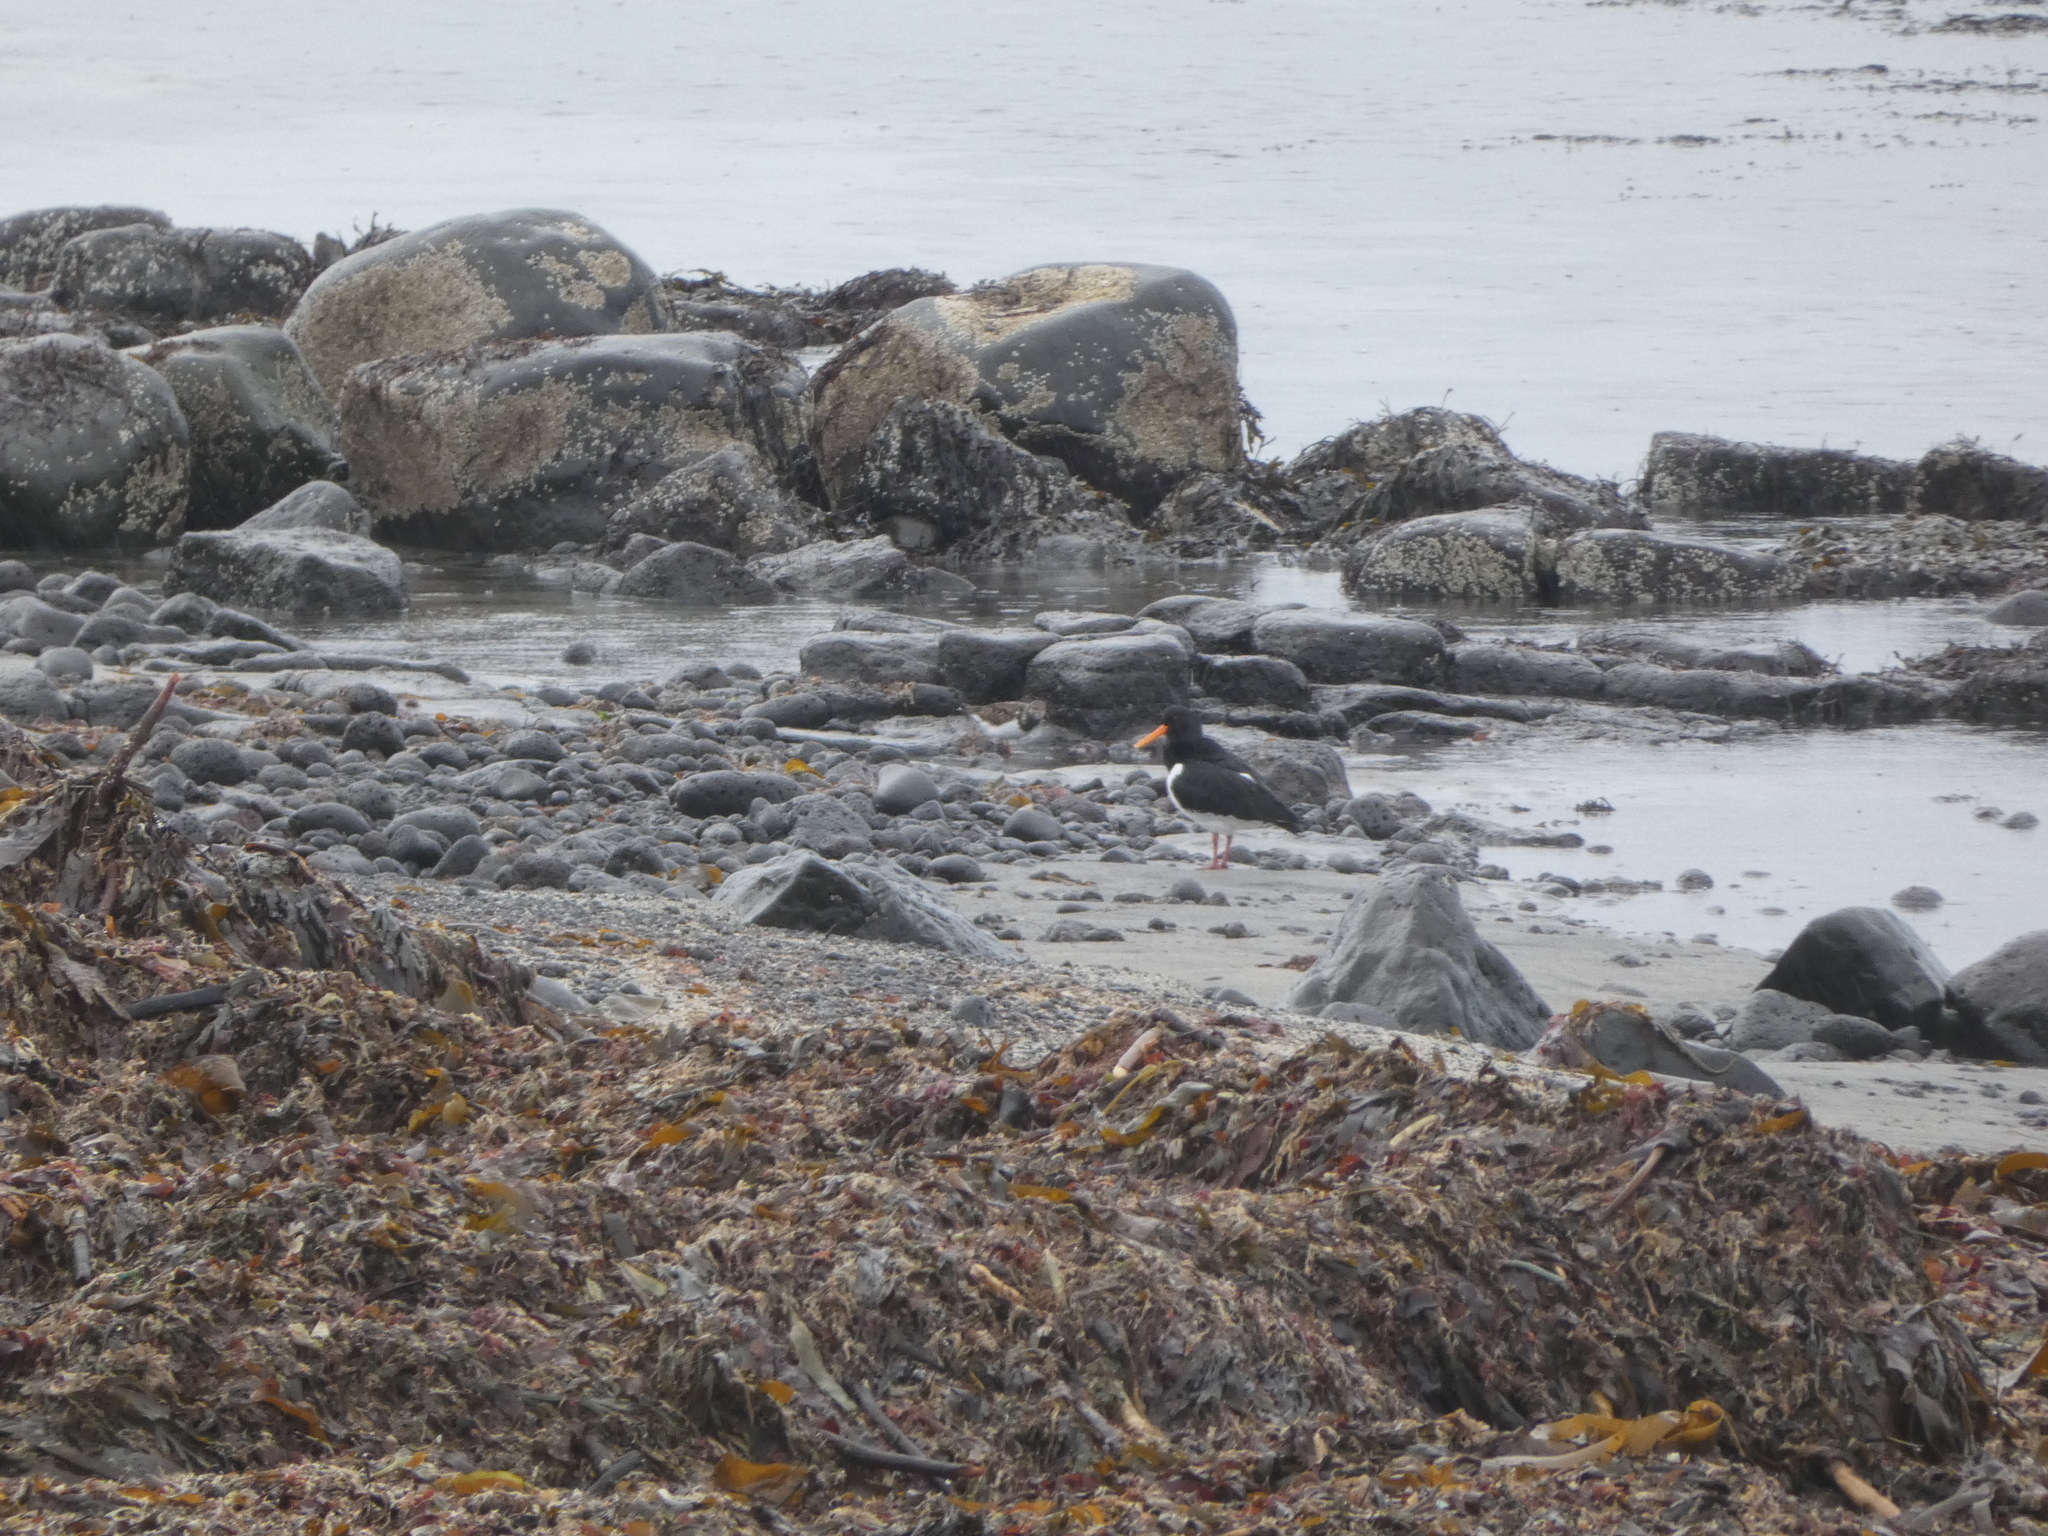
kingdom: Animalia
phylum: Chordata
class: Aves
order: Charadriiformes
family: Haematopodidae
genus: Haematopus
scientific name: Haematopus ostralegus
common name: Eurasian oystercatcher
